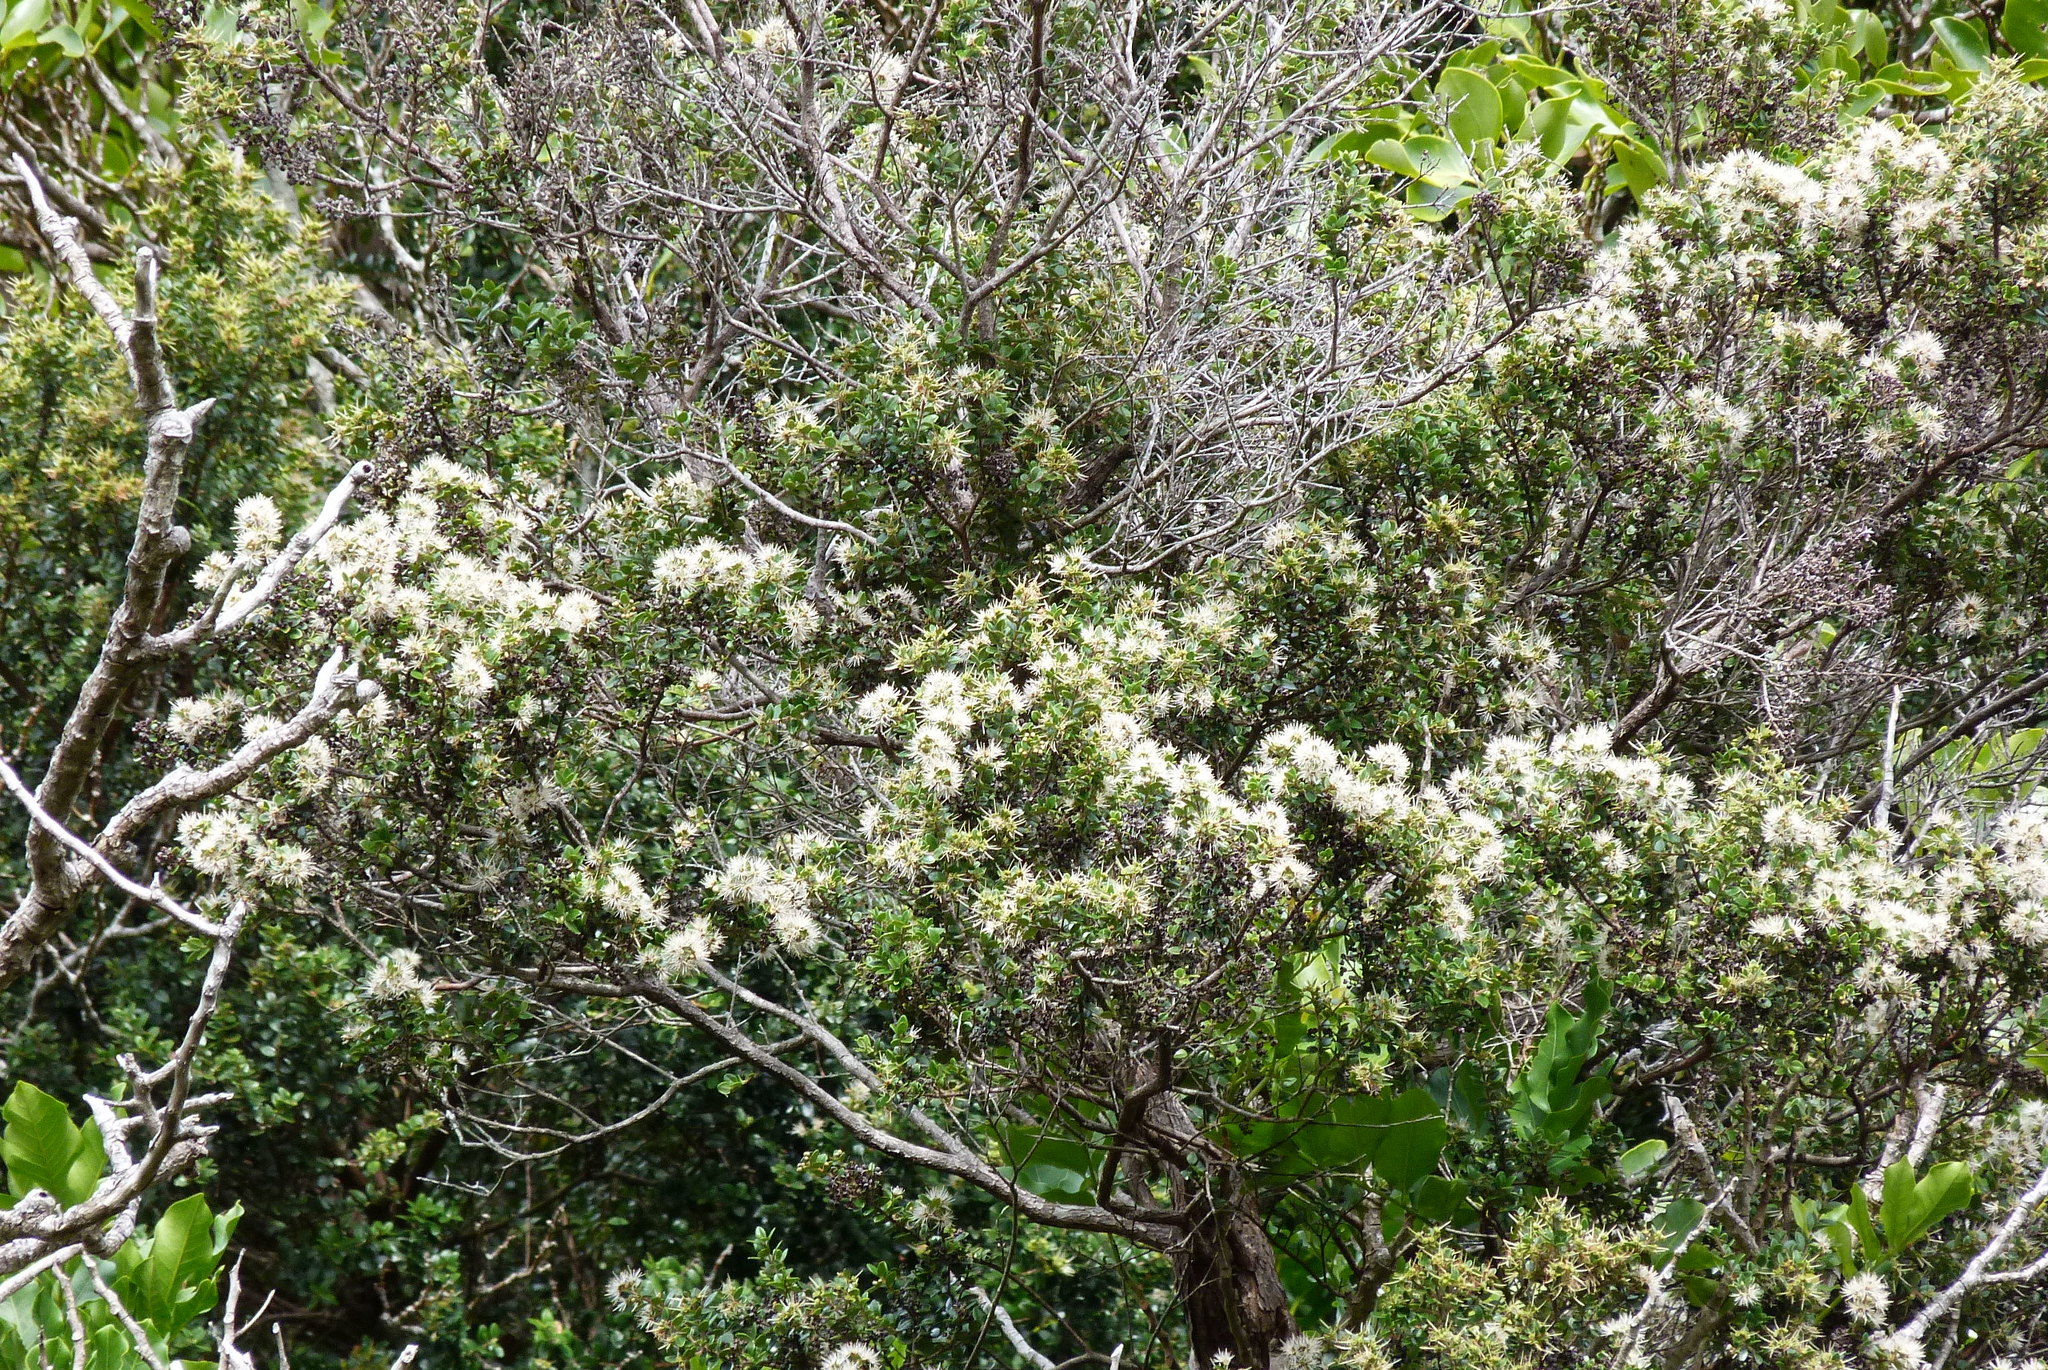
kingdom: Plantae
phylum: Tracheophyta
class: Magnoliopsida
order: Myrtales
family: Myrtaceae
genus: Metrosideros
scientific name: Metrosideros perforata
